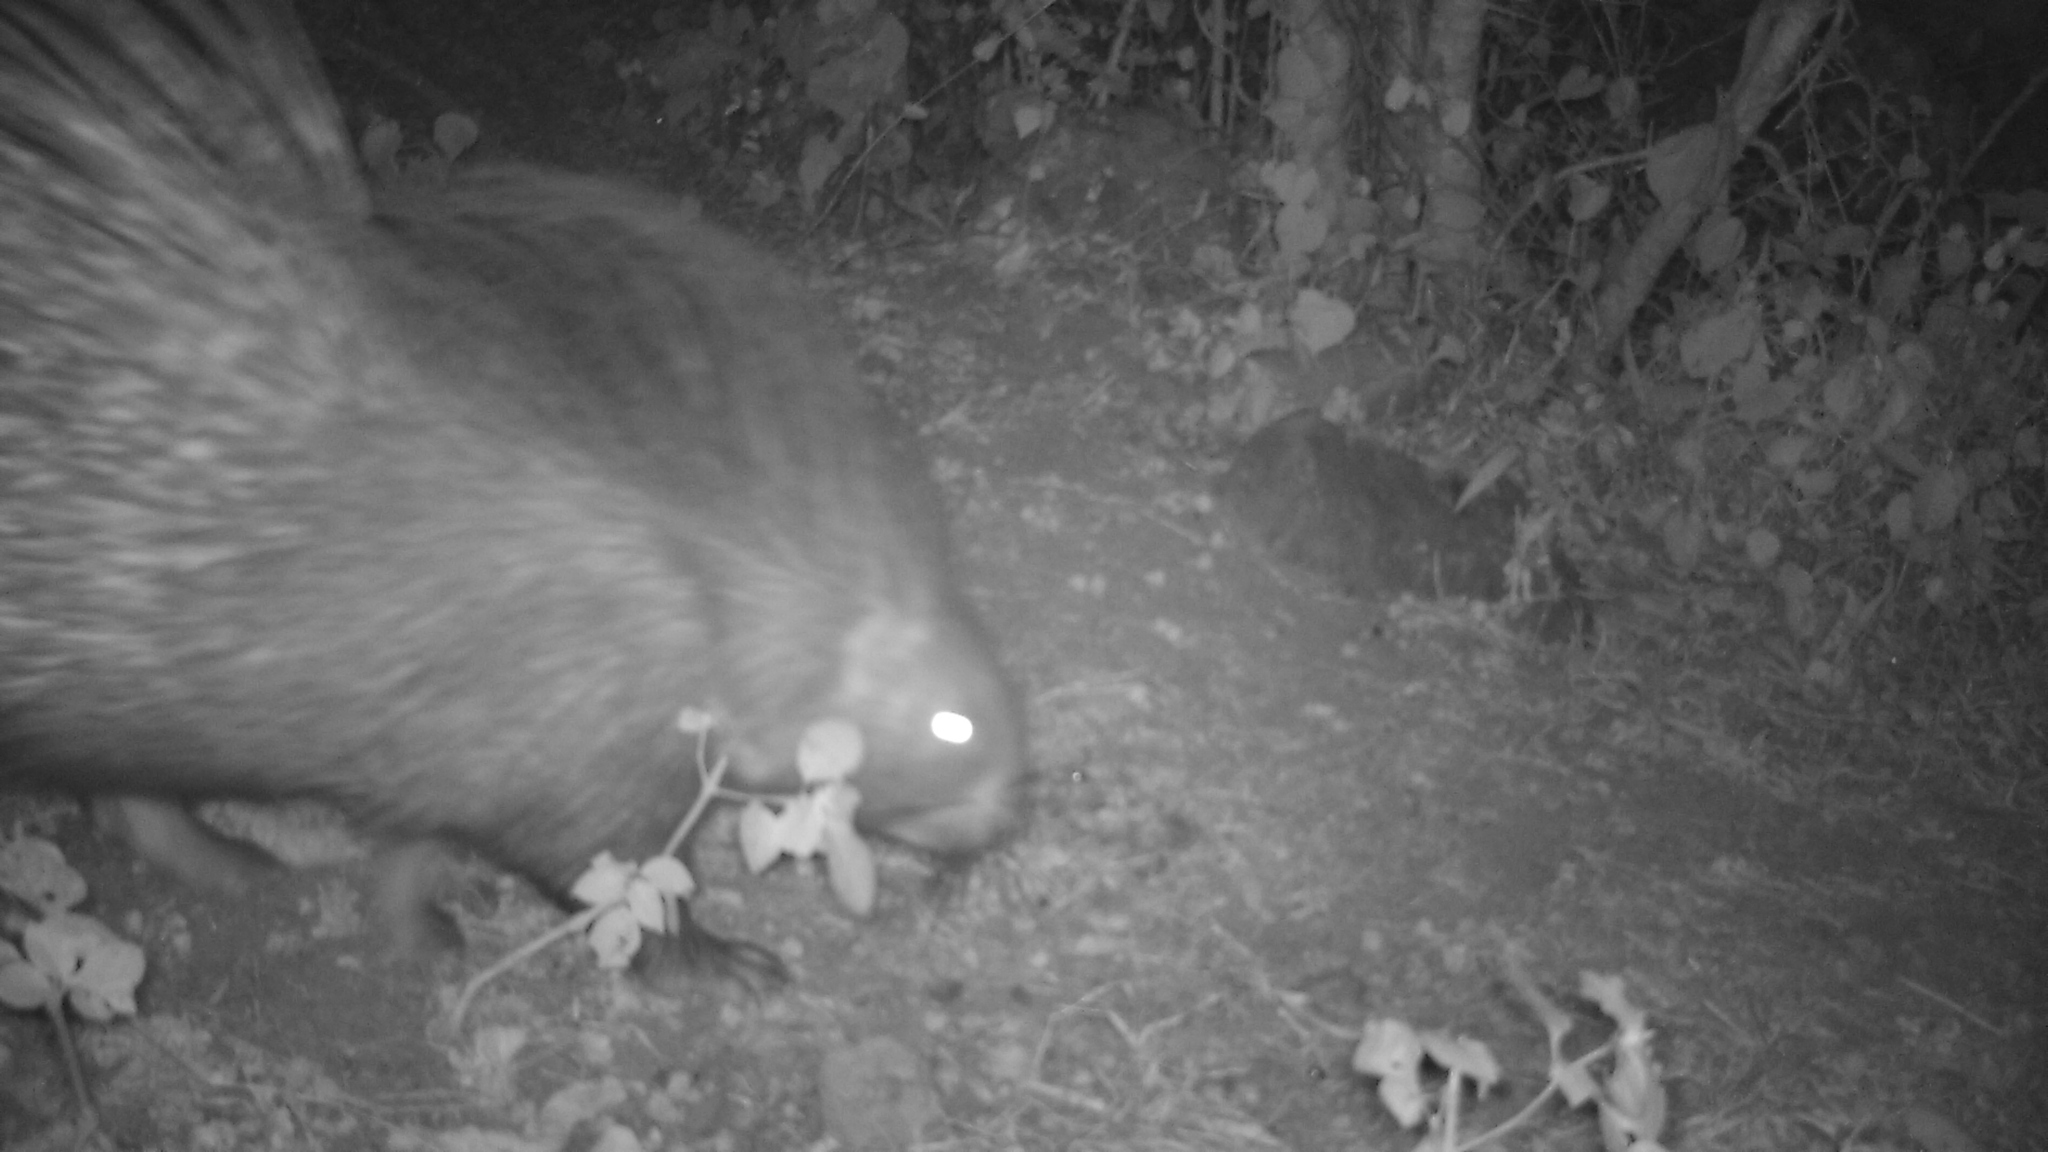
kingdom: Animalia
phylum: Chordata
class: Mammalia
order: Rodentia
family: Hystricidae
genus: Hystrix
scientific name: Hystrix indica
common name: Indian crested porcupine
